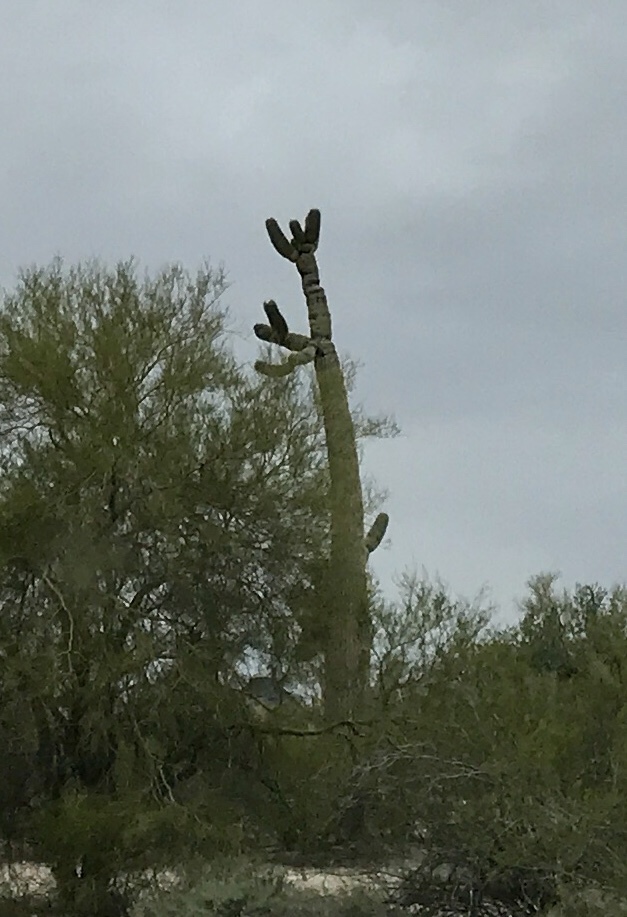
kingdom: Plantae
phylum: Tracheophyta
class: Magnoliopsida
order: Caryophyllales
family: Cactaceae
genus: Carnegiea
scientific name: Carnegiea gigantea
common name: Saguaro
